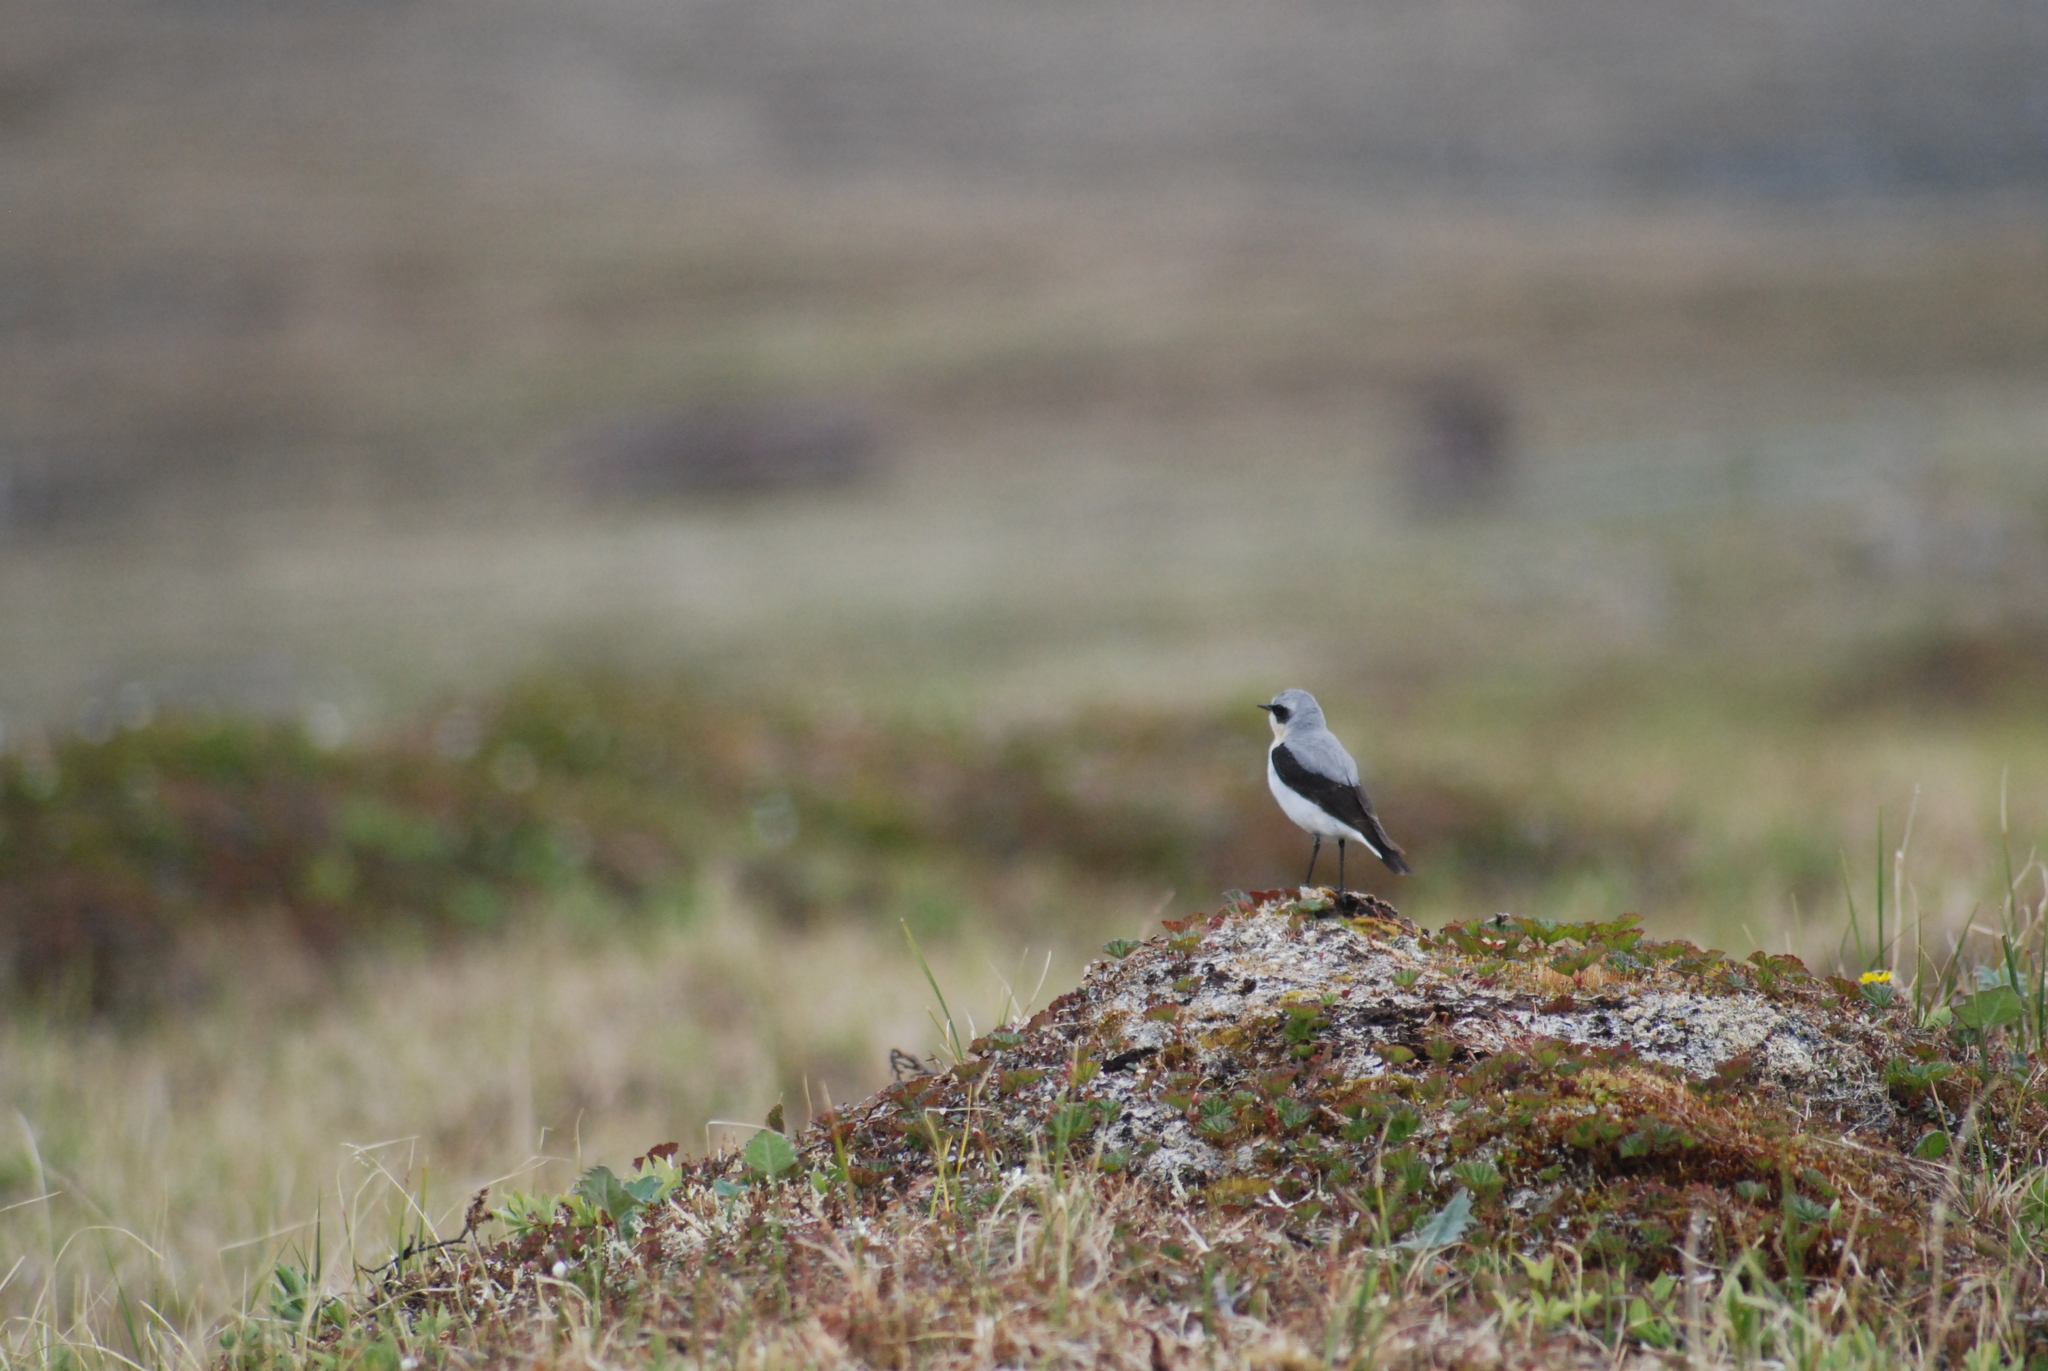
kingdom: Animalia
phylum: Chordata
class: Aves
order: Passeriformes
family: Muscicapidae
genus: Oenanthe
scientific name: Oenanthe oenanthe
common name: Northern wheatear
